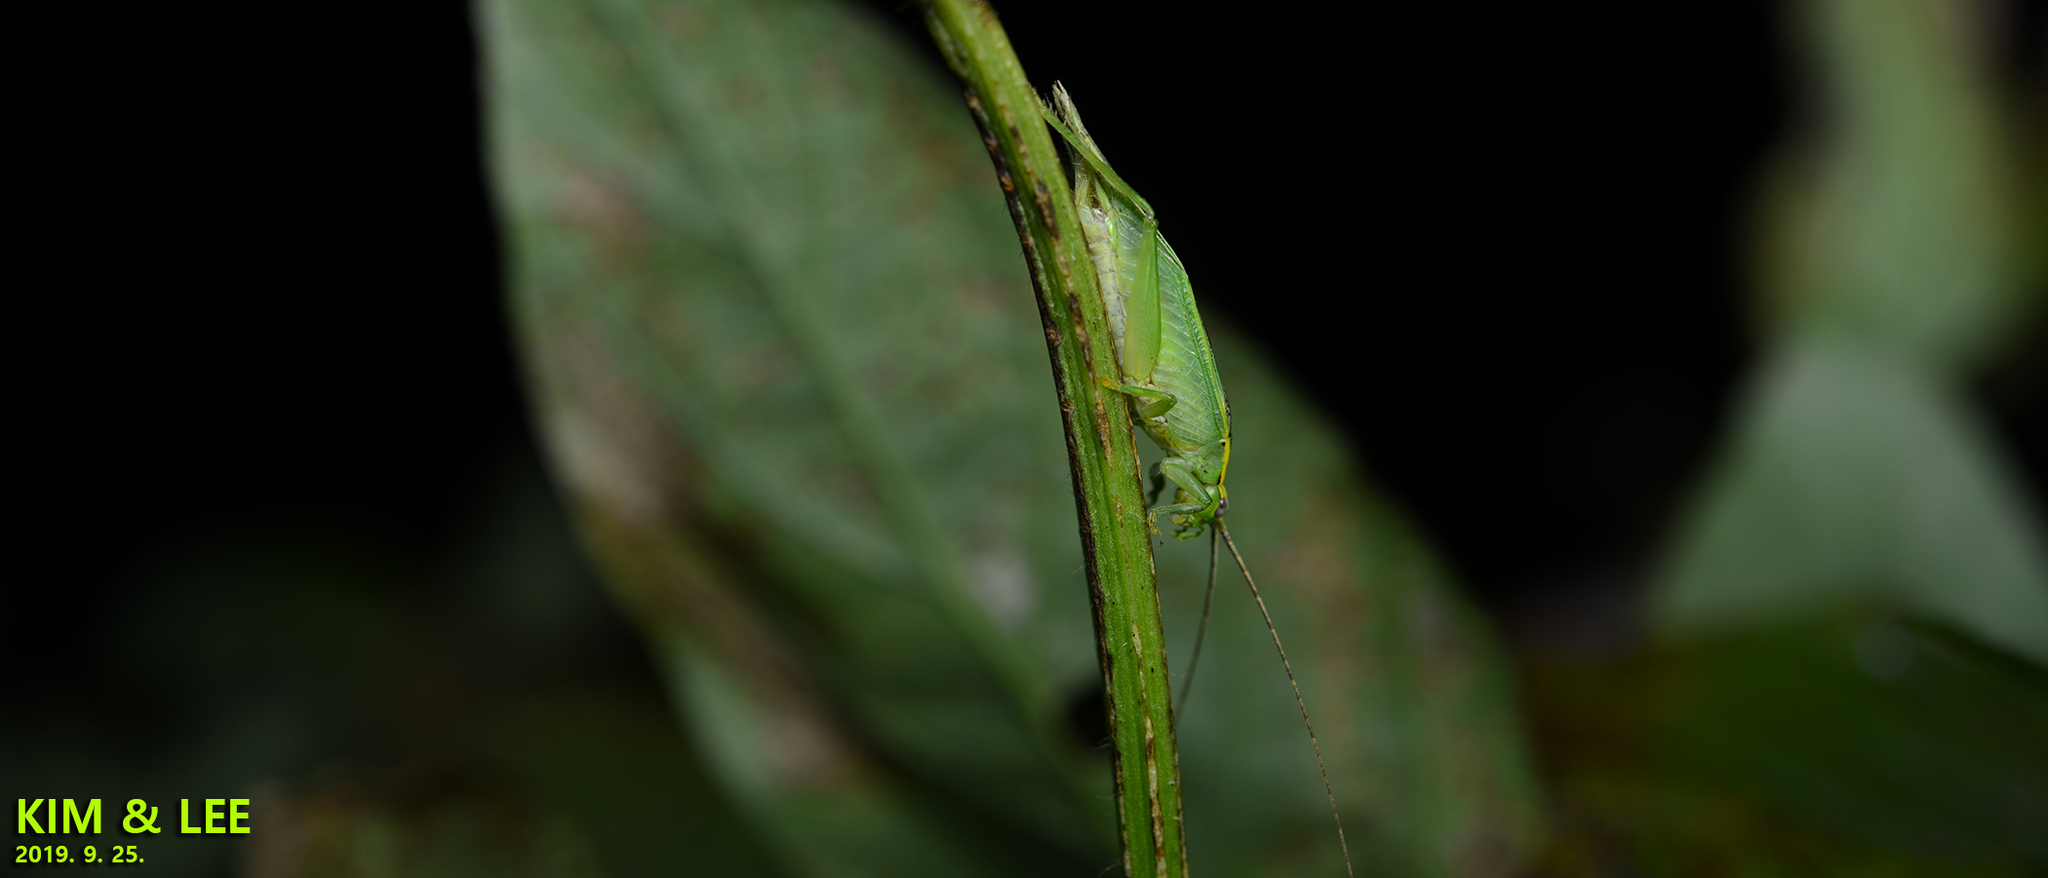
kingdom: Animalia
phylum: Arthropoda
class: Insecta
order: Orthoptera
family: Gryllidae
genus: Truljalia
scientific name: Truljalia hibinonis
